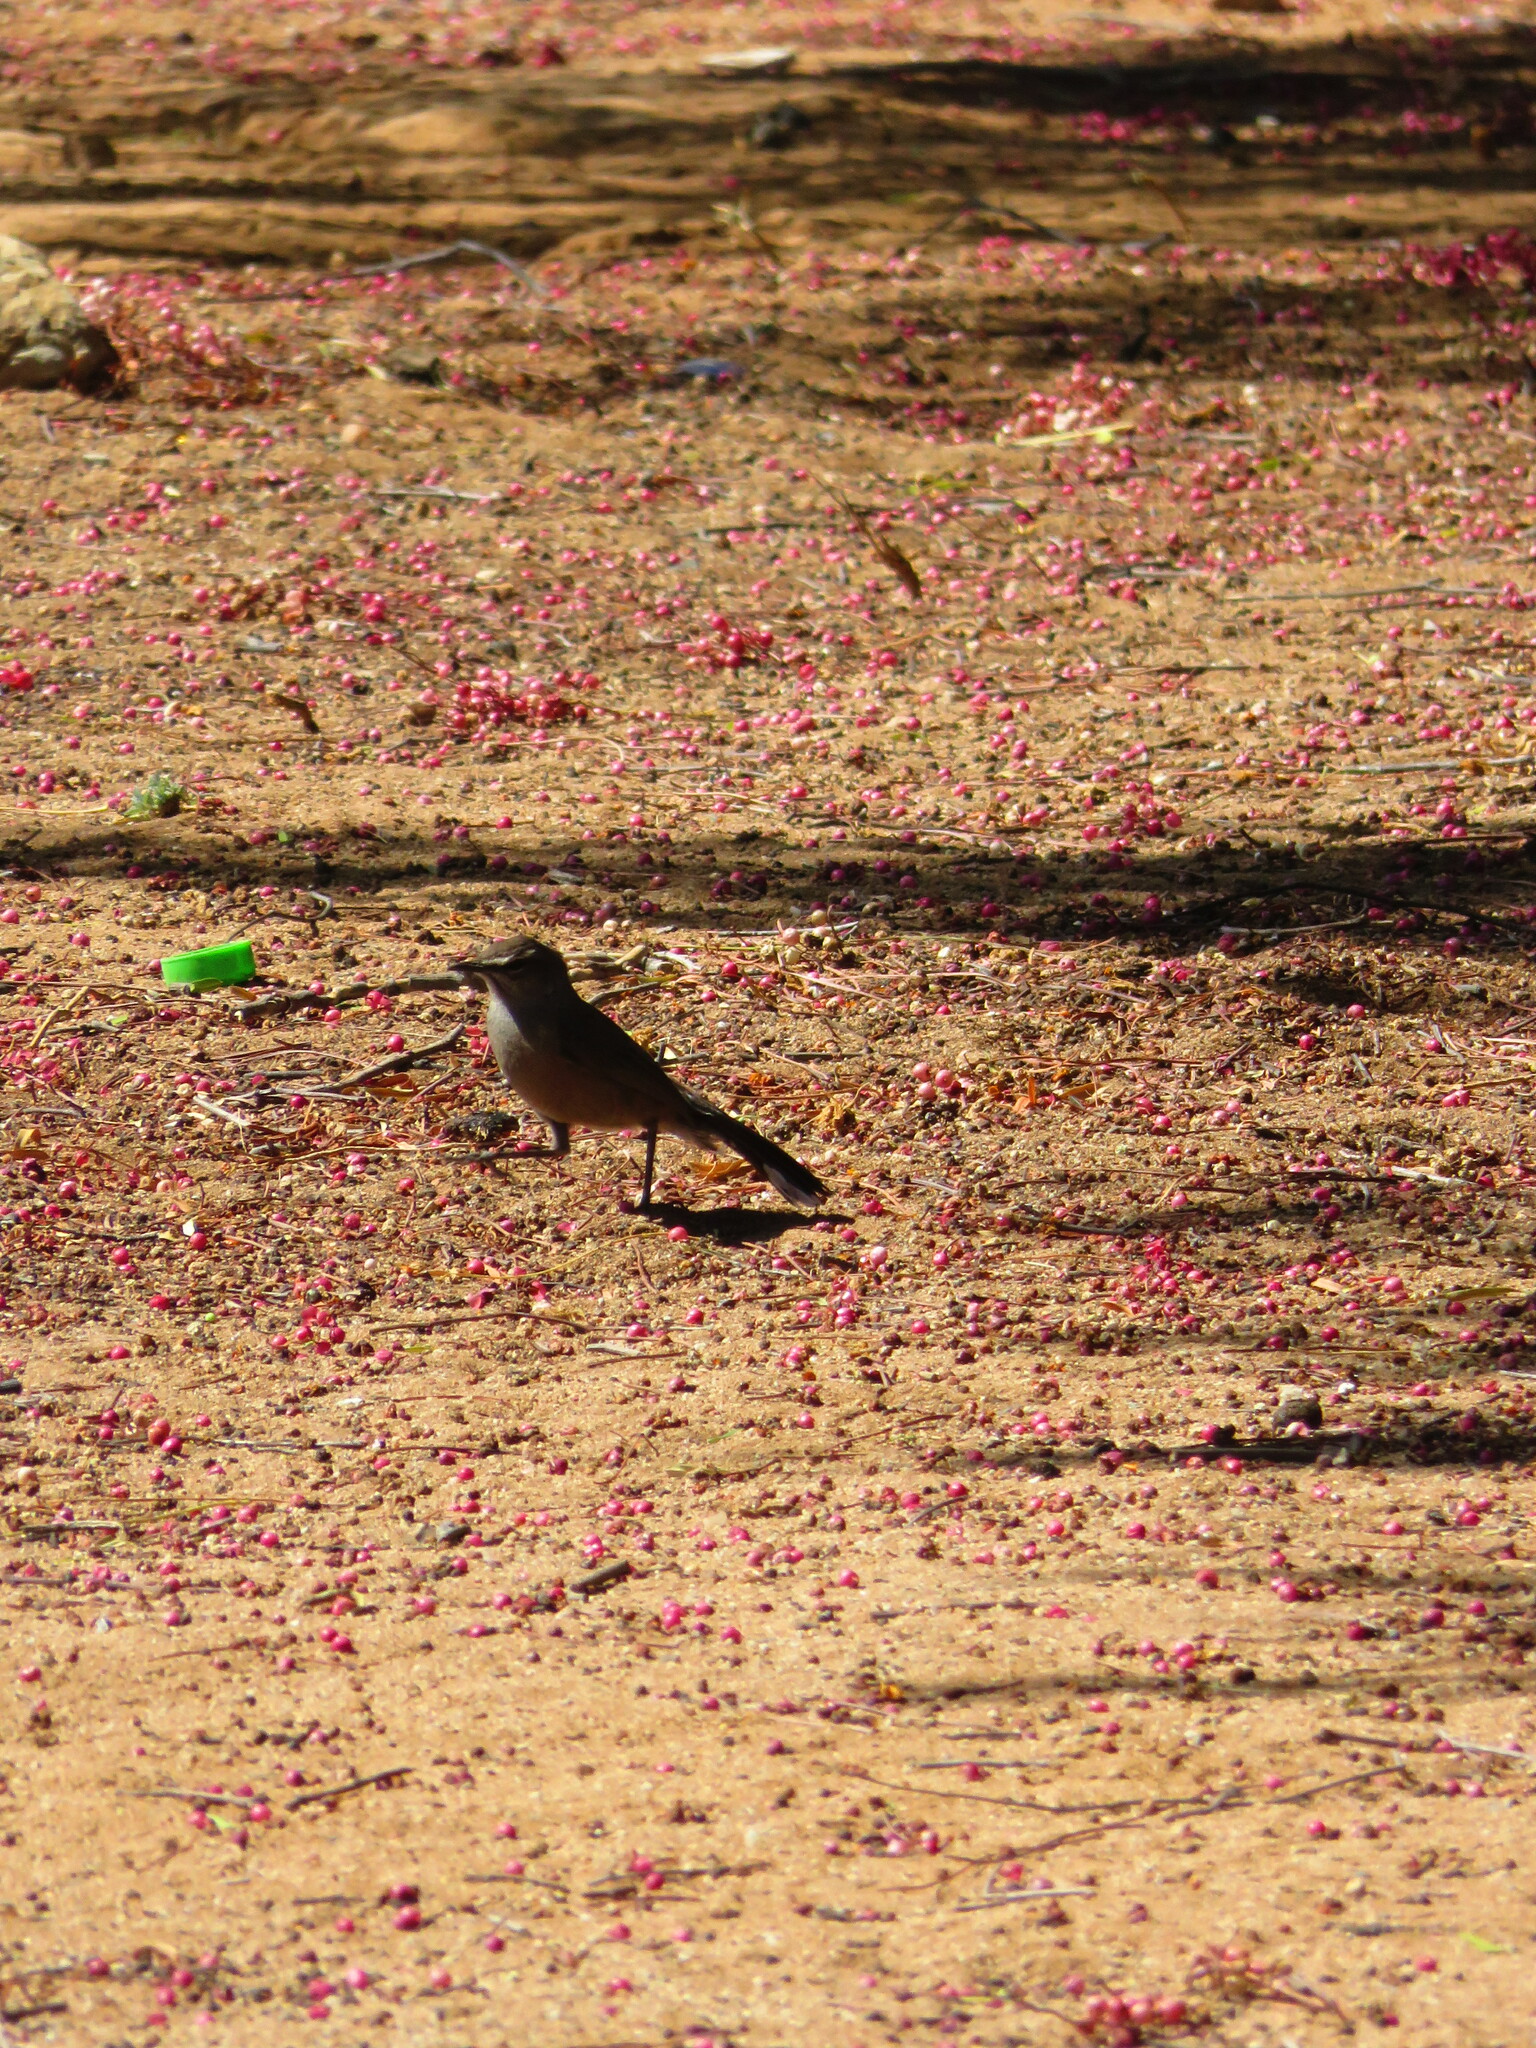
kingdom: Animalia
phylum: Chordata
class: Aves
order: Passeriformes
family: Muscicapidae
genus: Erythropygia
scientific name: Erythropygia coryphoeus
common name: Karoo scrub robin
